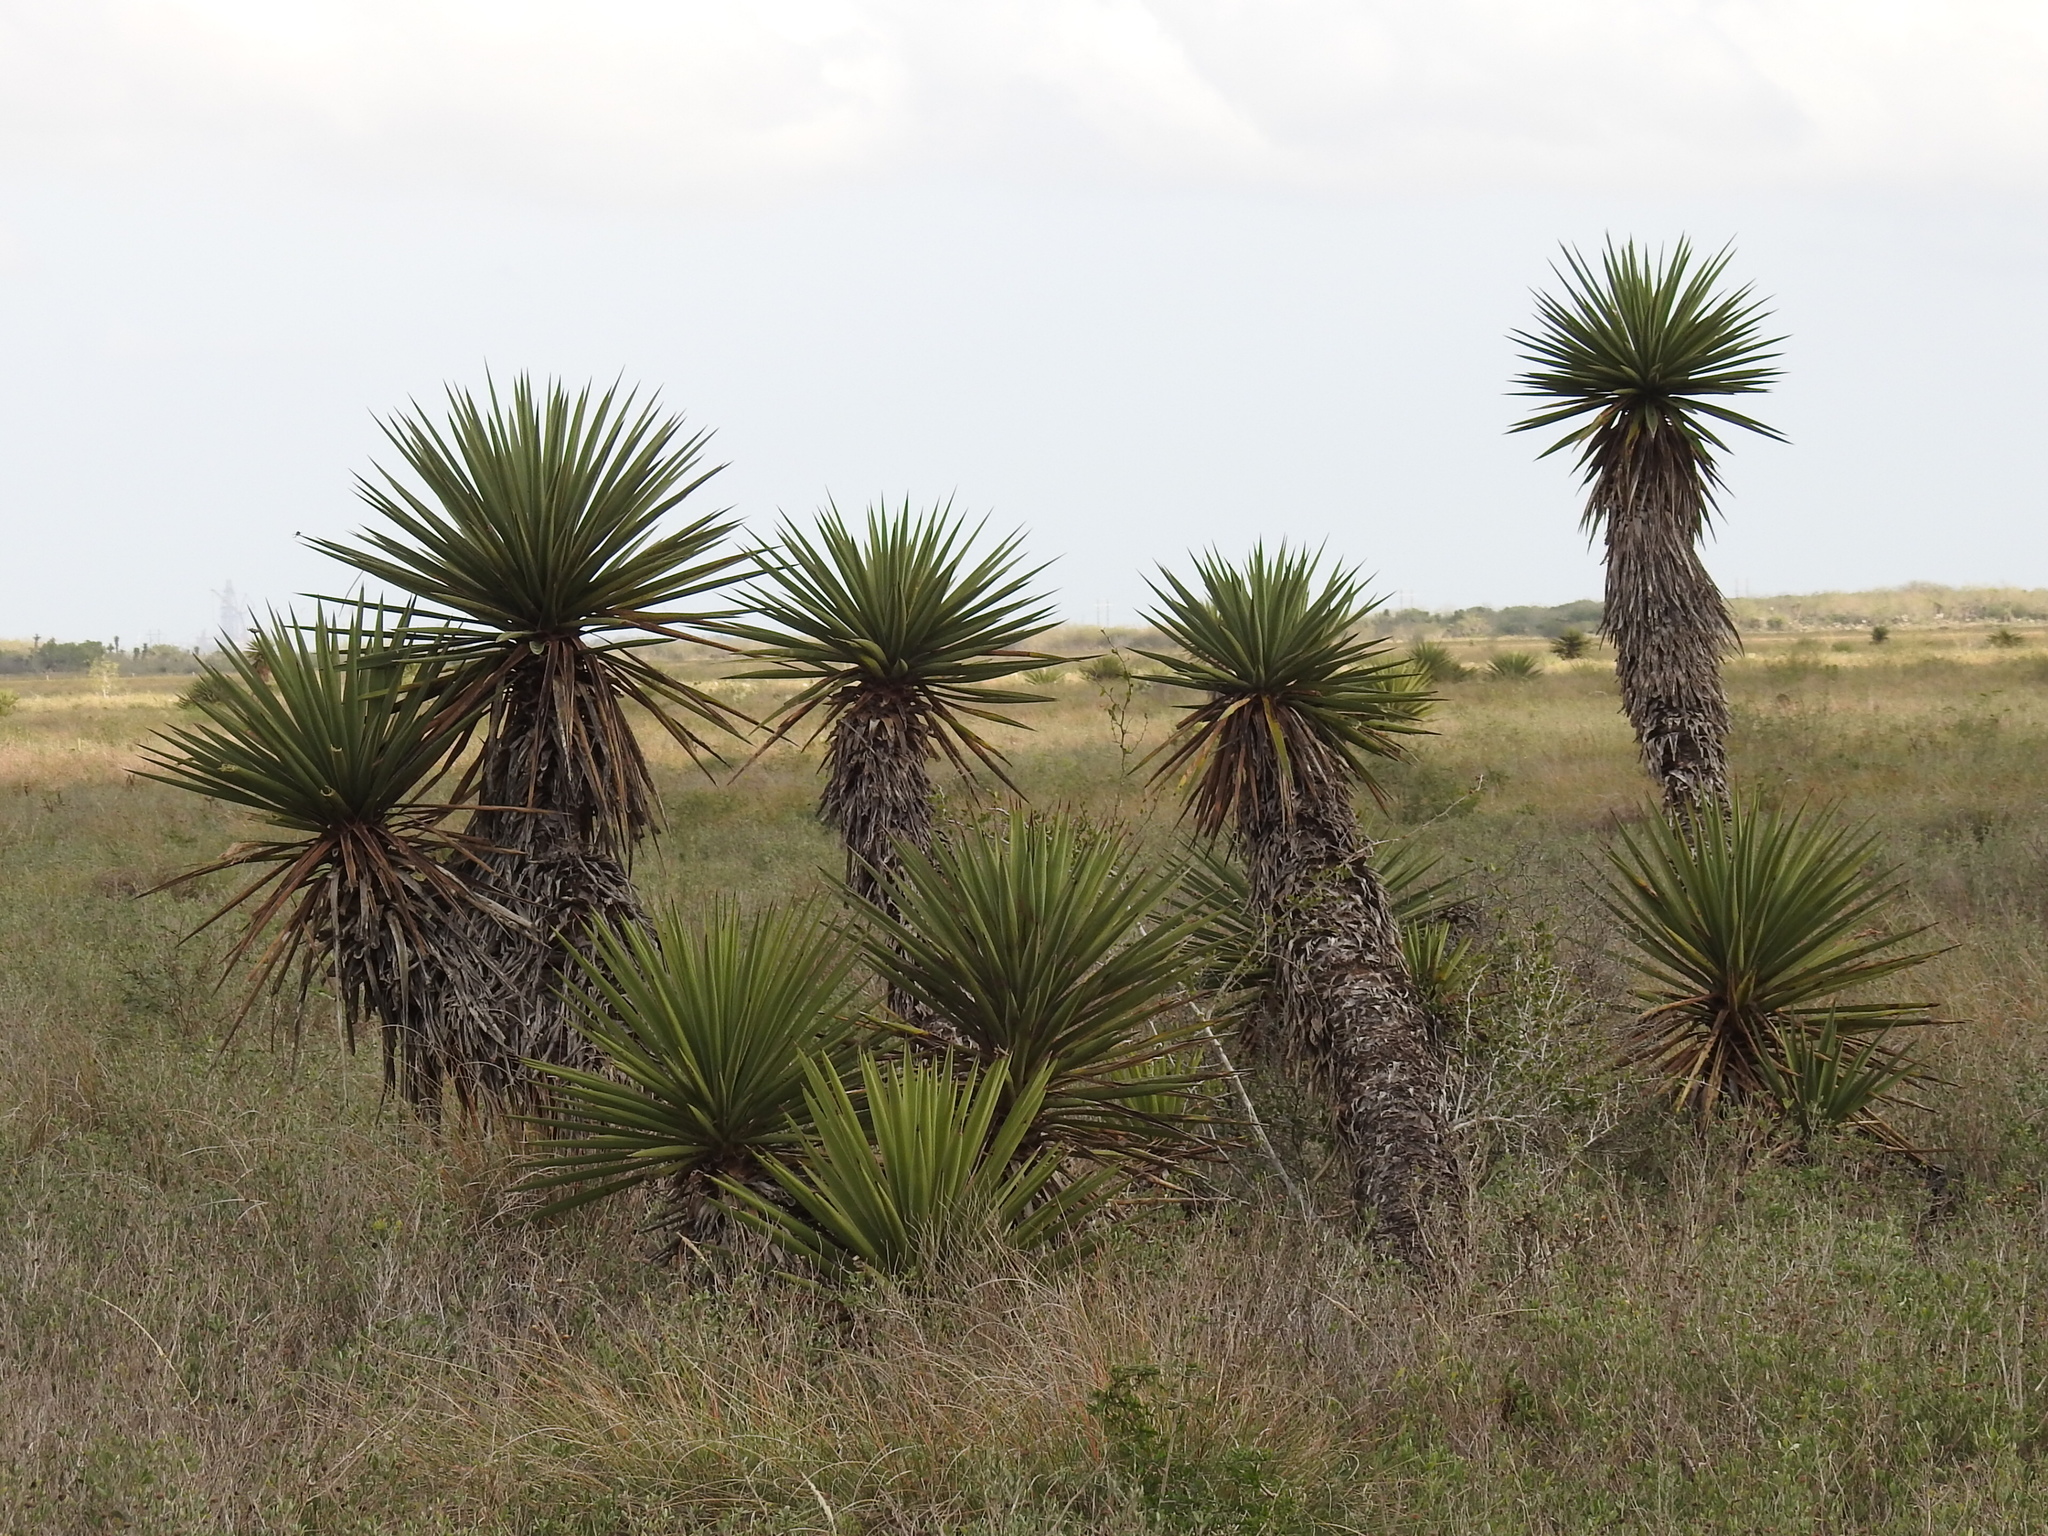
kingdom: Plantae
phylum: Tracheophyta
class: Liliopsida
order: Asparagales
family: Asparagaceae
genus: Yucca
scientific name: Yucca treculiana
